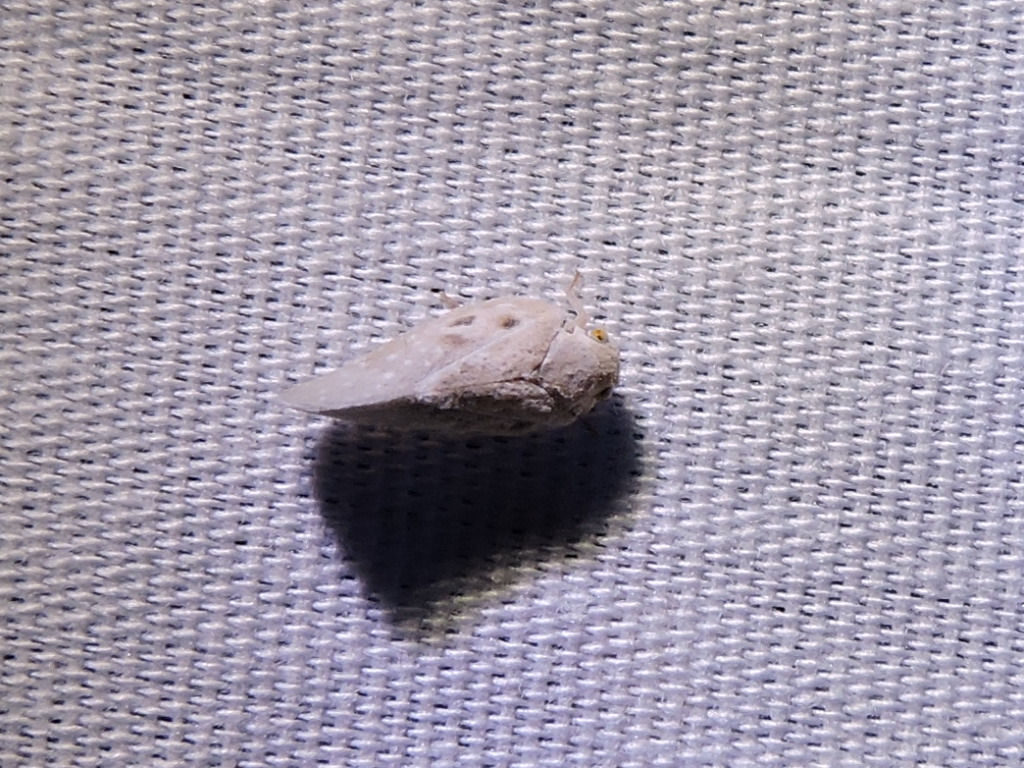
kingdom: Animalia
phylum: Arthropoda
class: Insecta
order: Hemiptera
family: Flatidae
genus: Metcalfa
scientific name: Metcalfa pruinosa
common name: Citrus flatid planthopper
